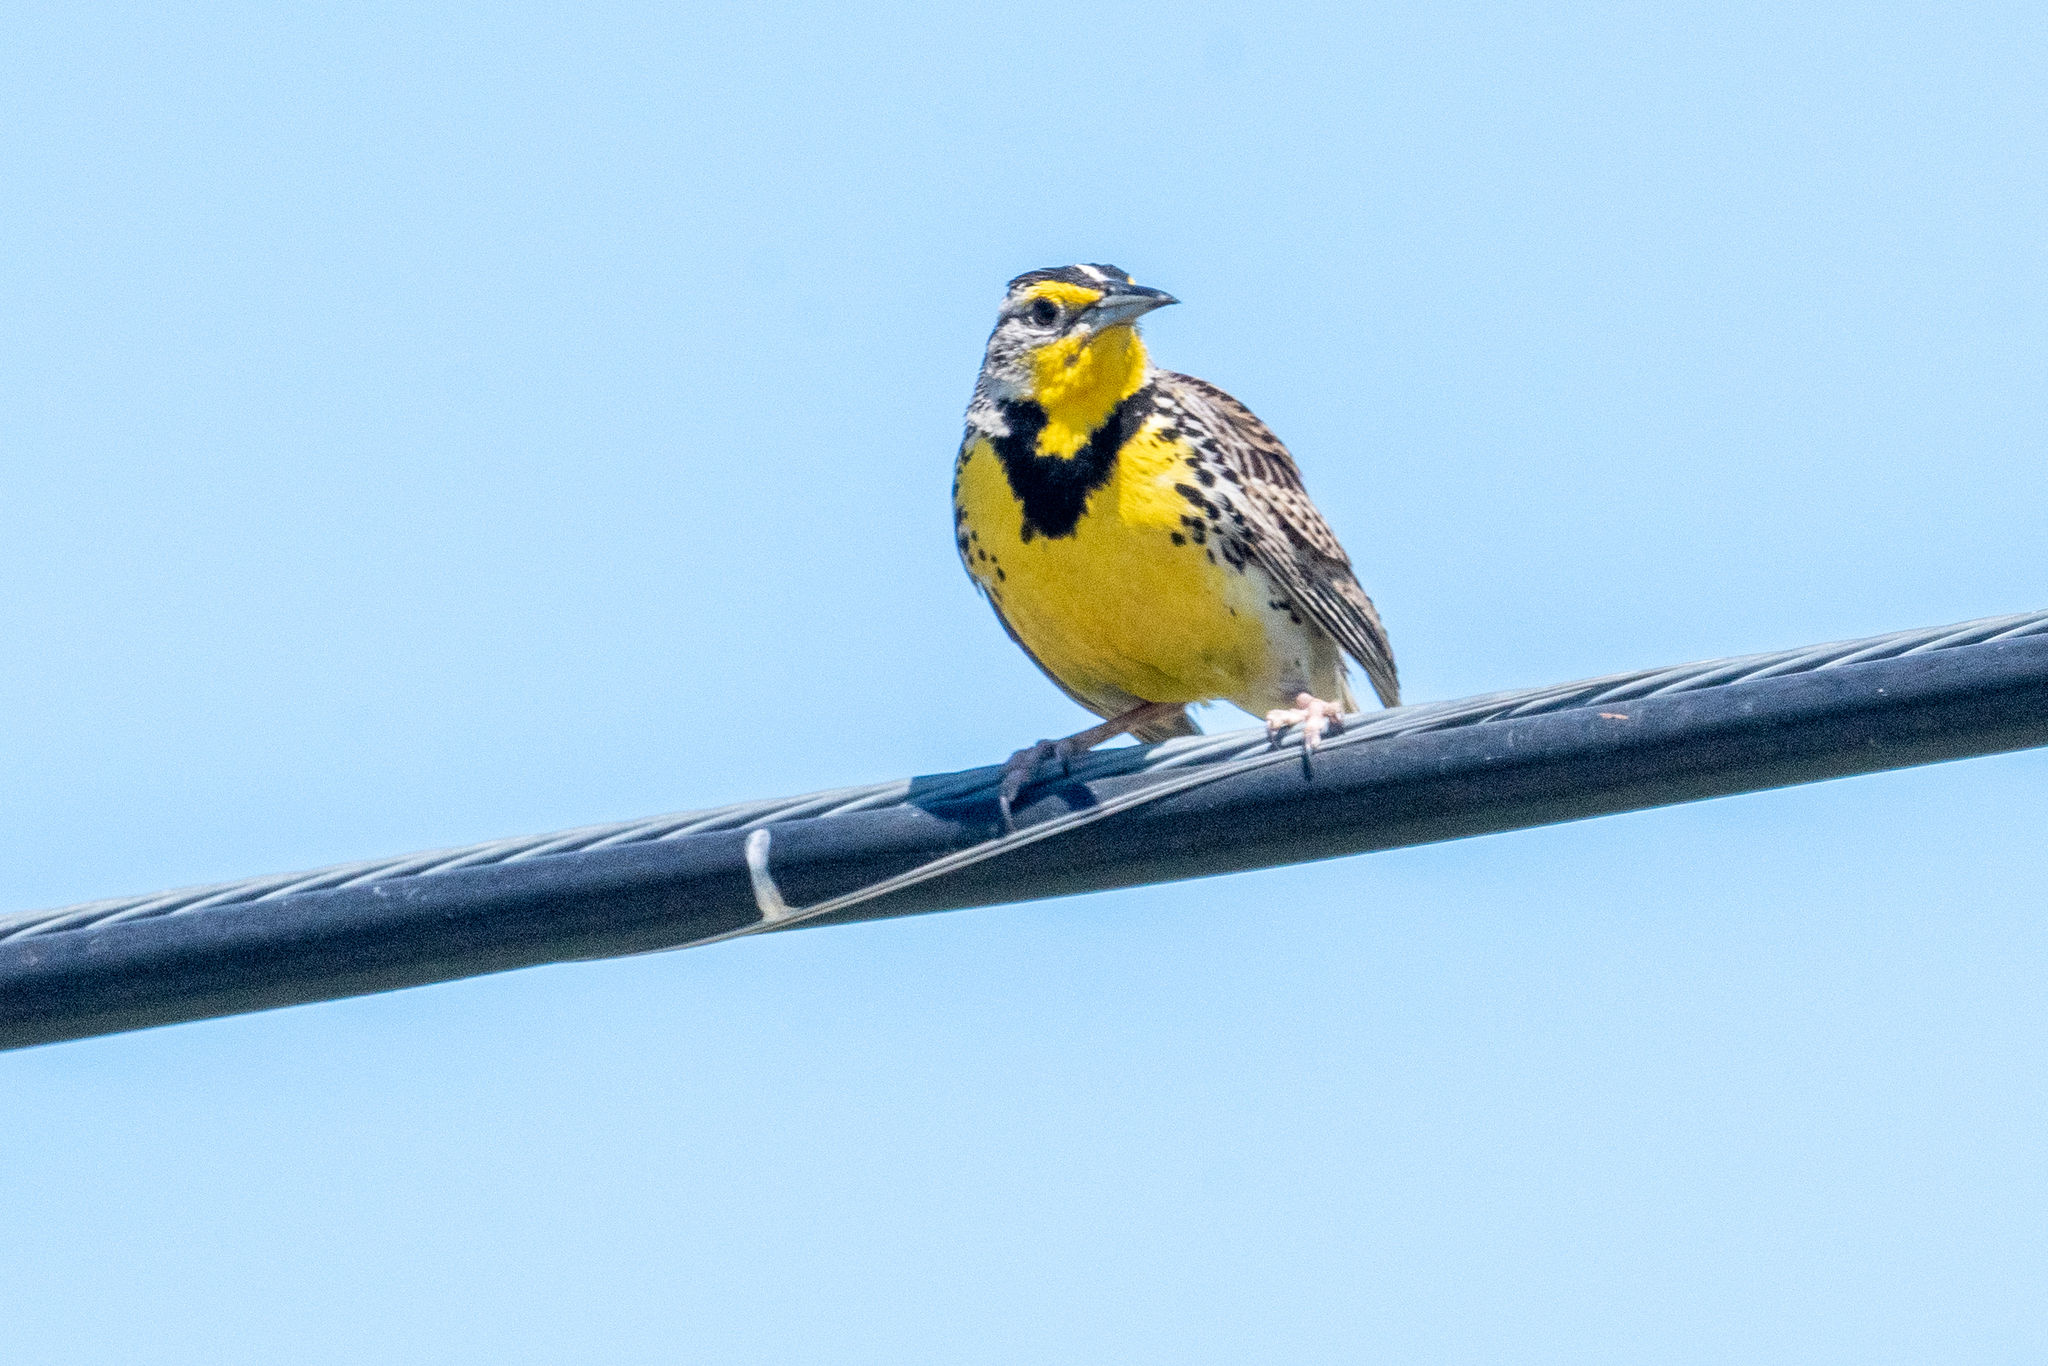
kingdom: Animalia
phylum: Chordata
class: Aves
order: Passeriformes
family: Icteridae
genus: Sturnella
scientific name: Sturnella neglecta
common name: Western meadowlark
